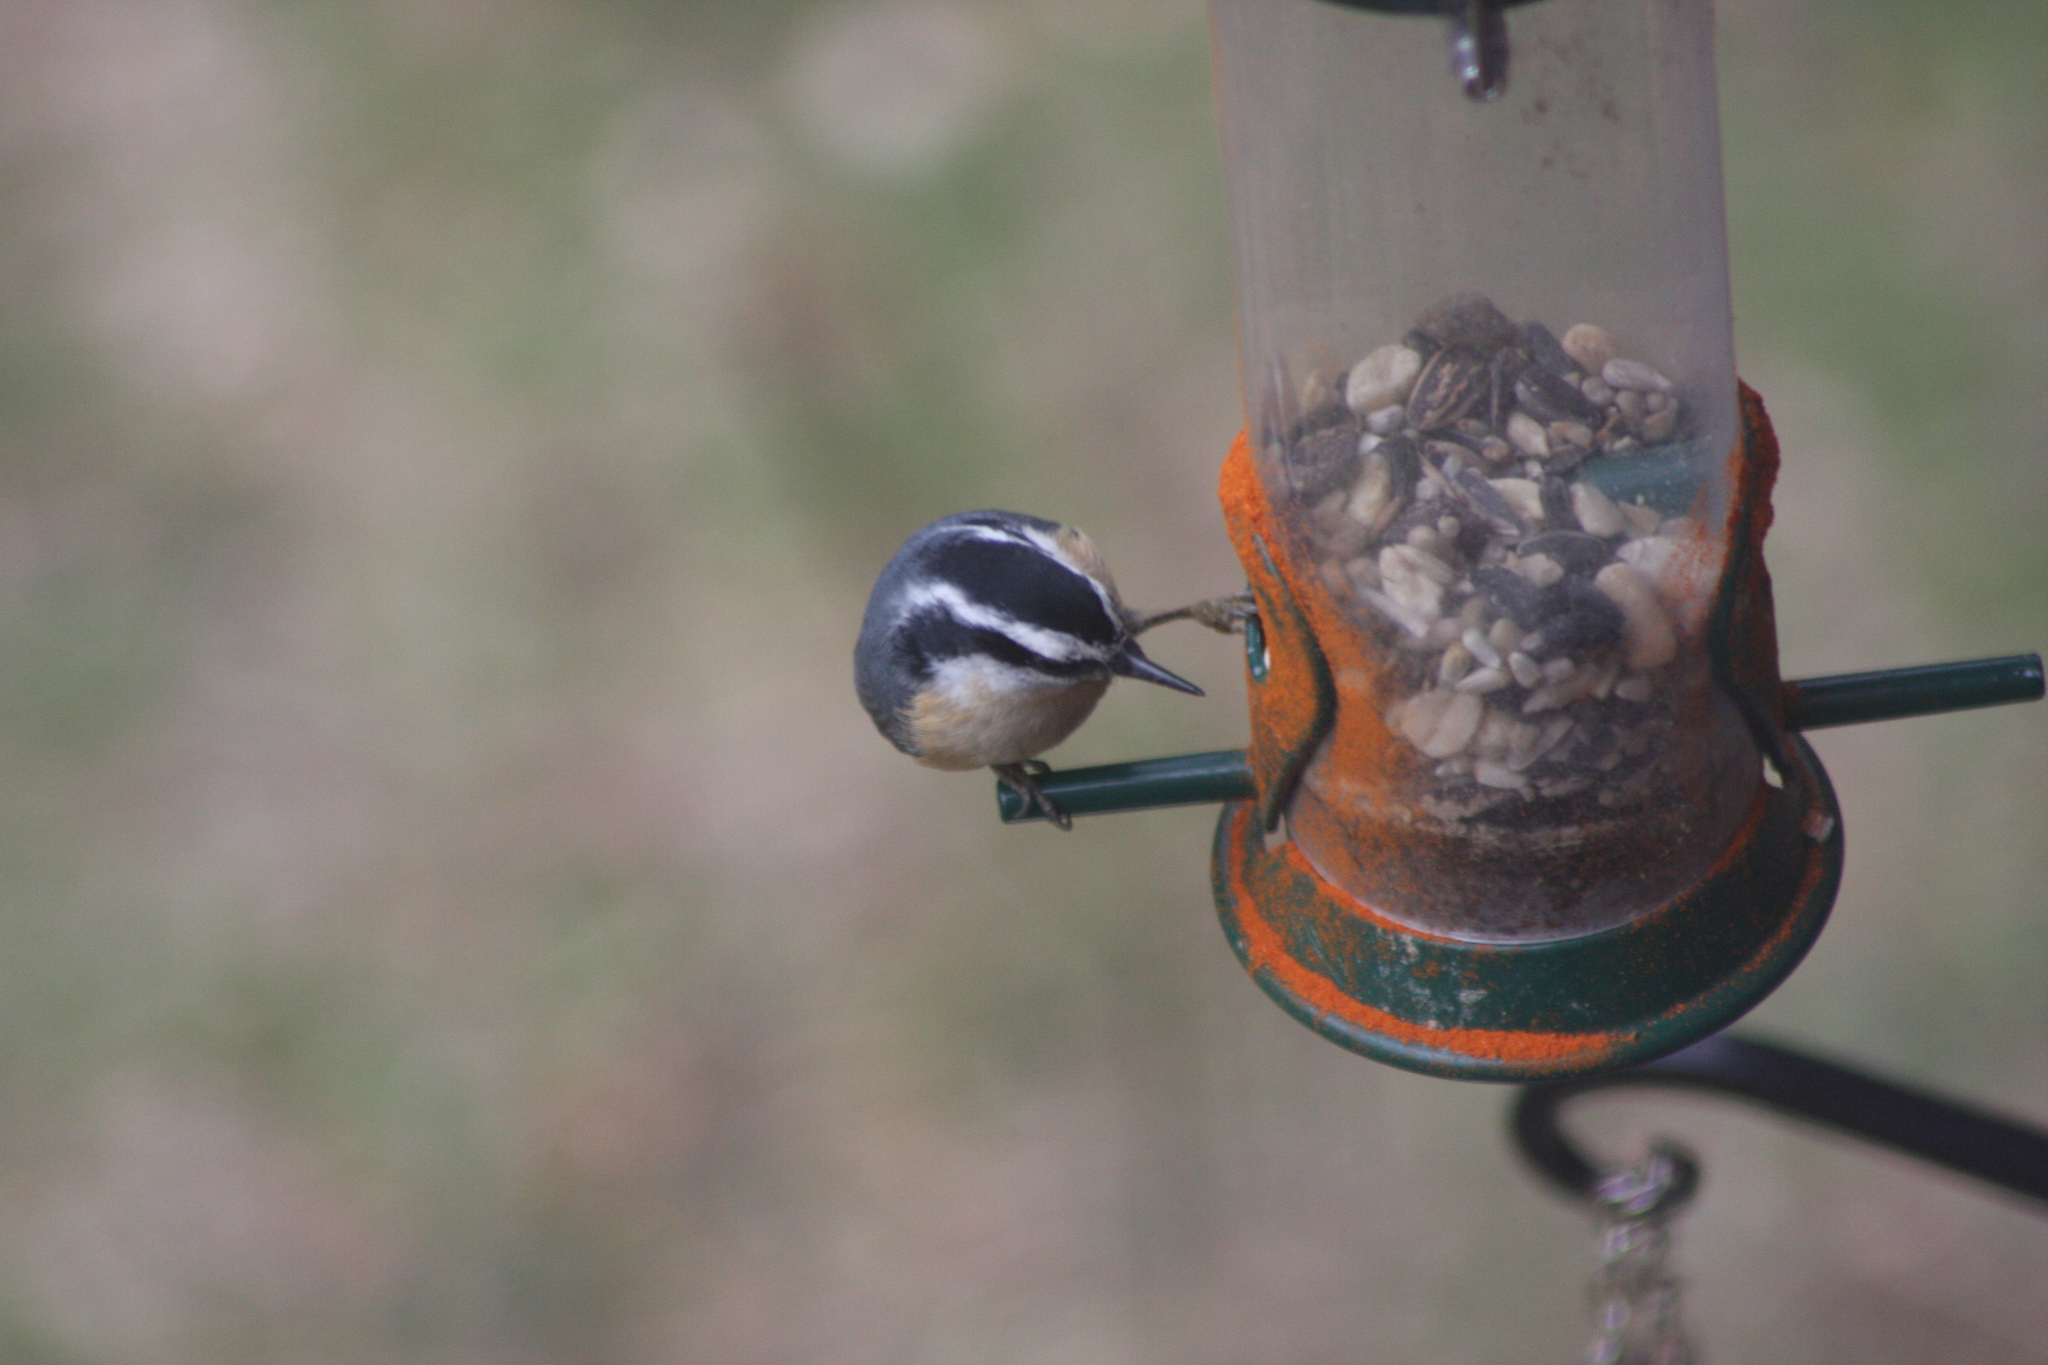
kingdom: Animalia
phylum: Chordata
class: Aves
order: Passeriformes
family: Sittidae
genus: Sitta
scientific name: Sitta canadensis
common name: Red-breasted nuthatch
